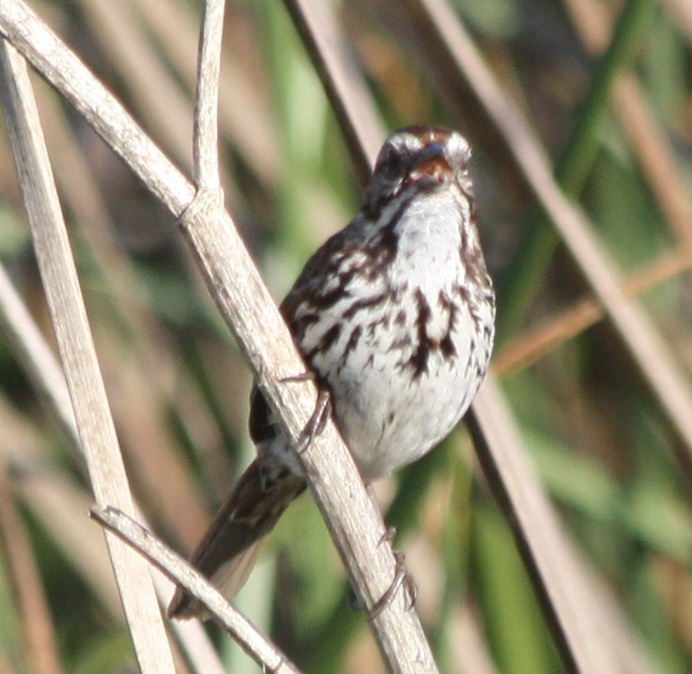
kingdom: Animalia
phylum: Chordata
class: Aves
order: Passeriformes
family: Passerellidae
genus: Melospiza
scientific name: Melospiza melodia
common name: Song sparrow
